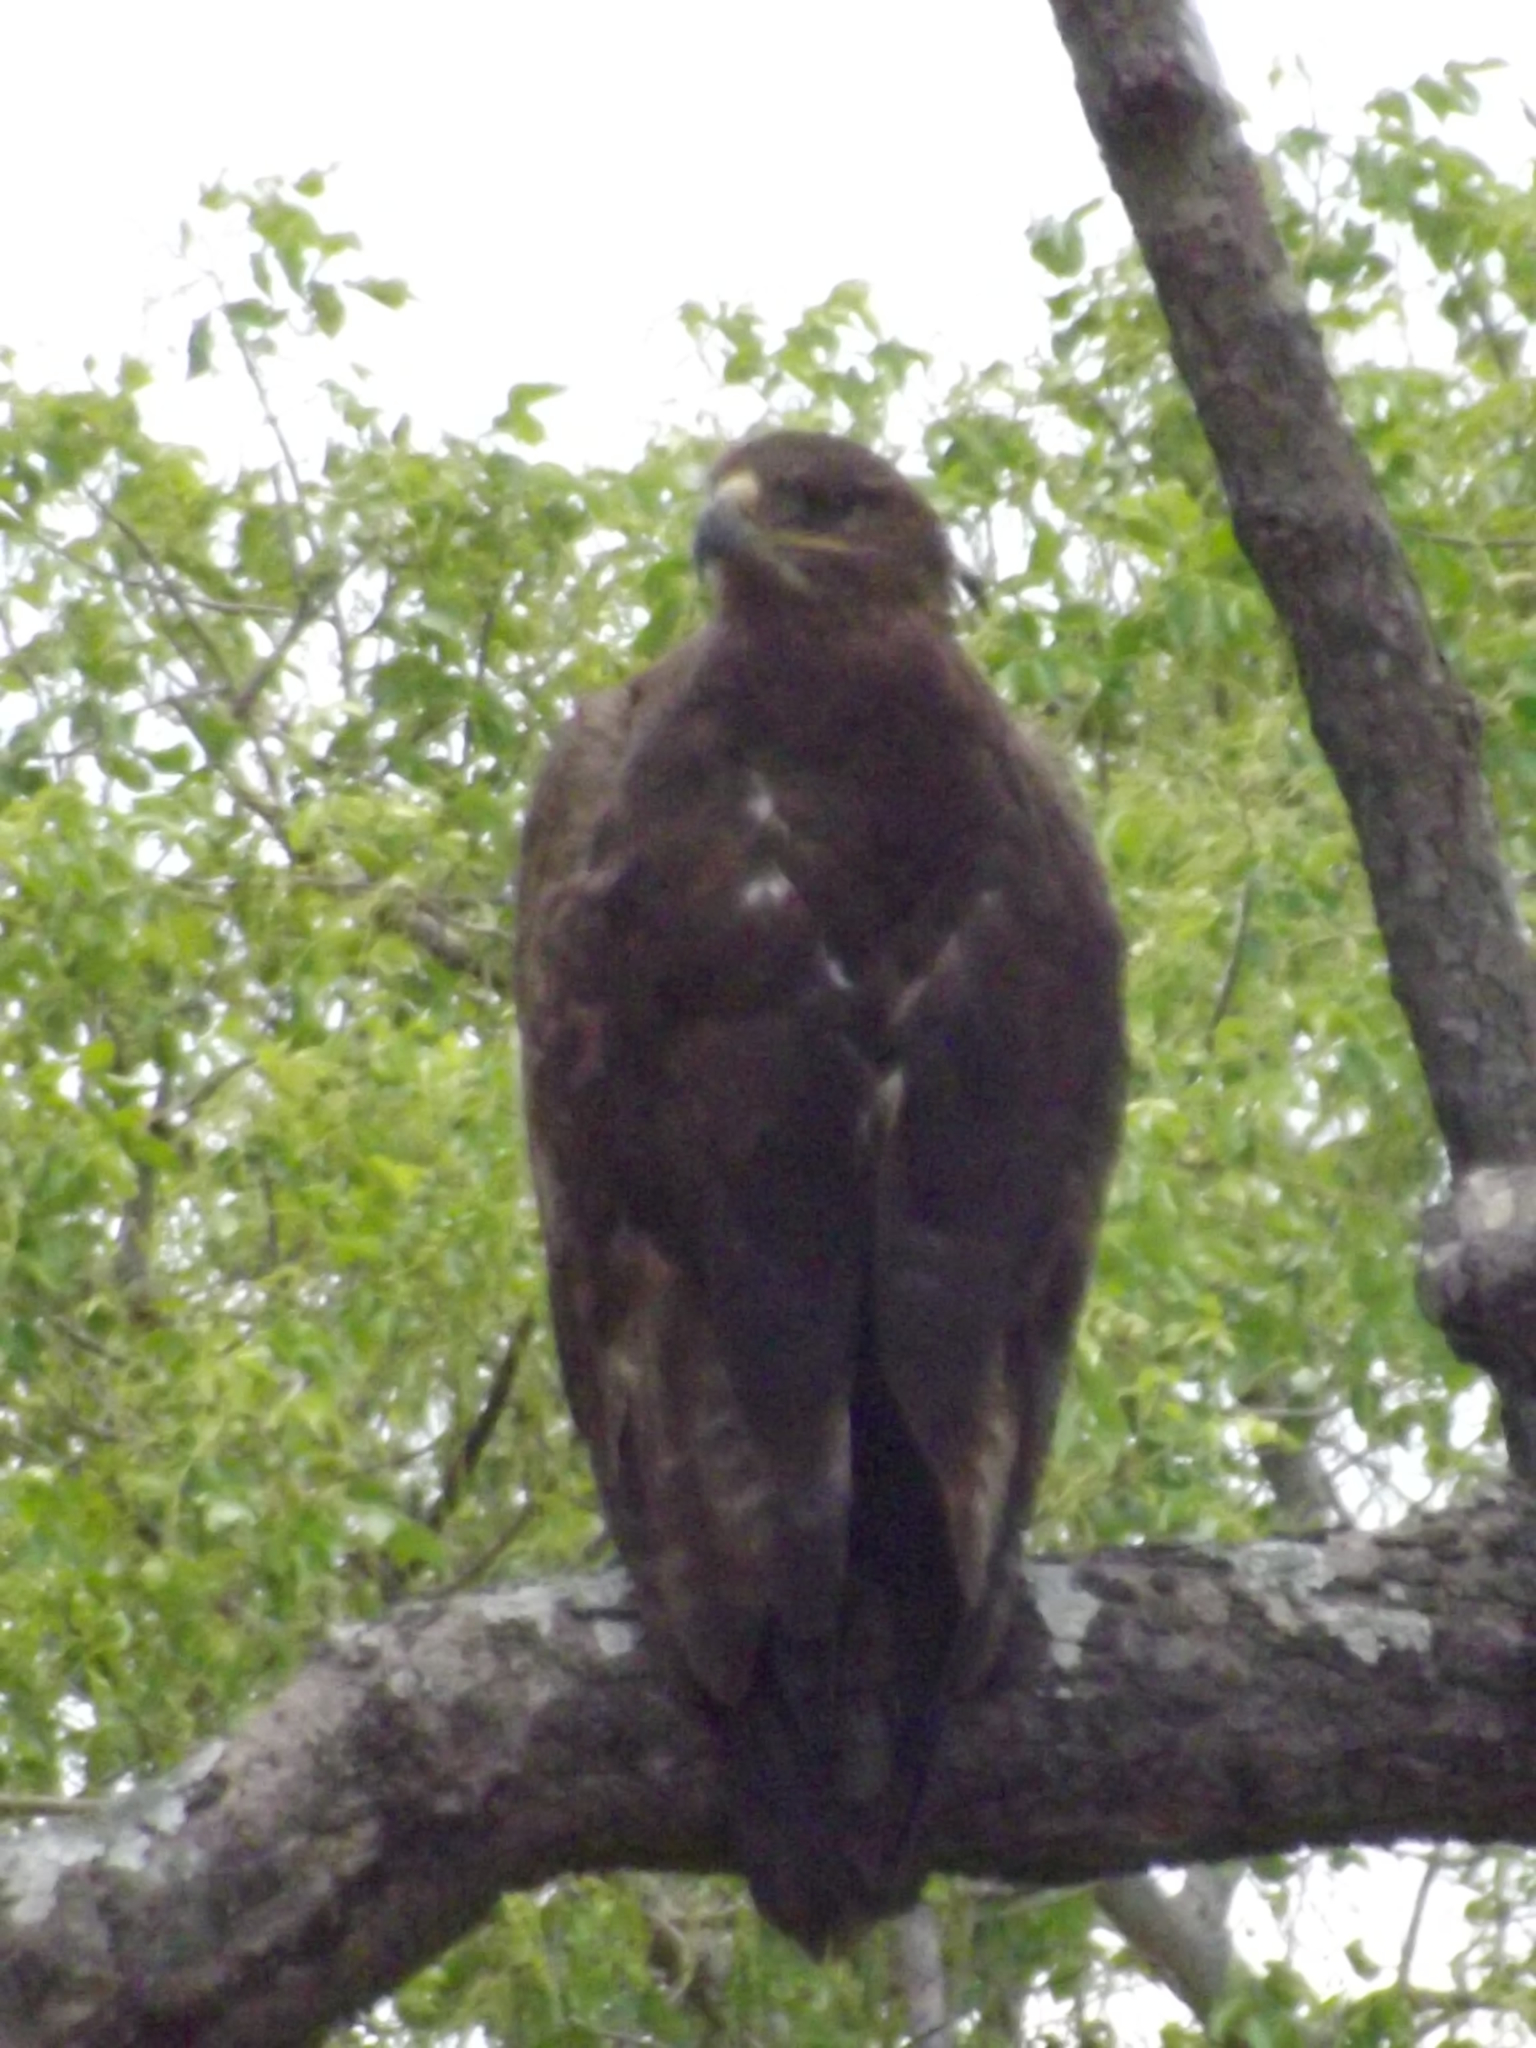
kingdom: Animalia
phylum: Chordata
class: Aves
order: Accipitriformes
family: Accipitridae
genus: Aquila
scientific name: Aquila nipalensis
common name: Steppe eagle
